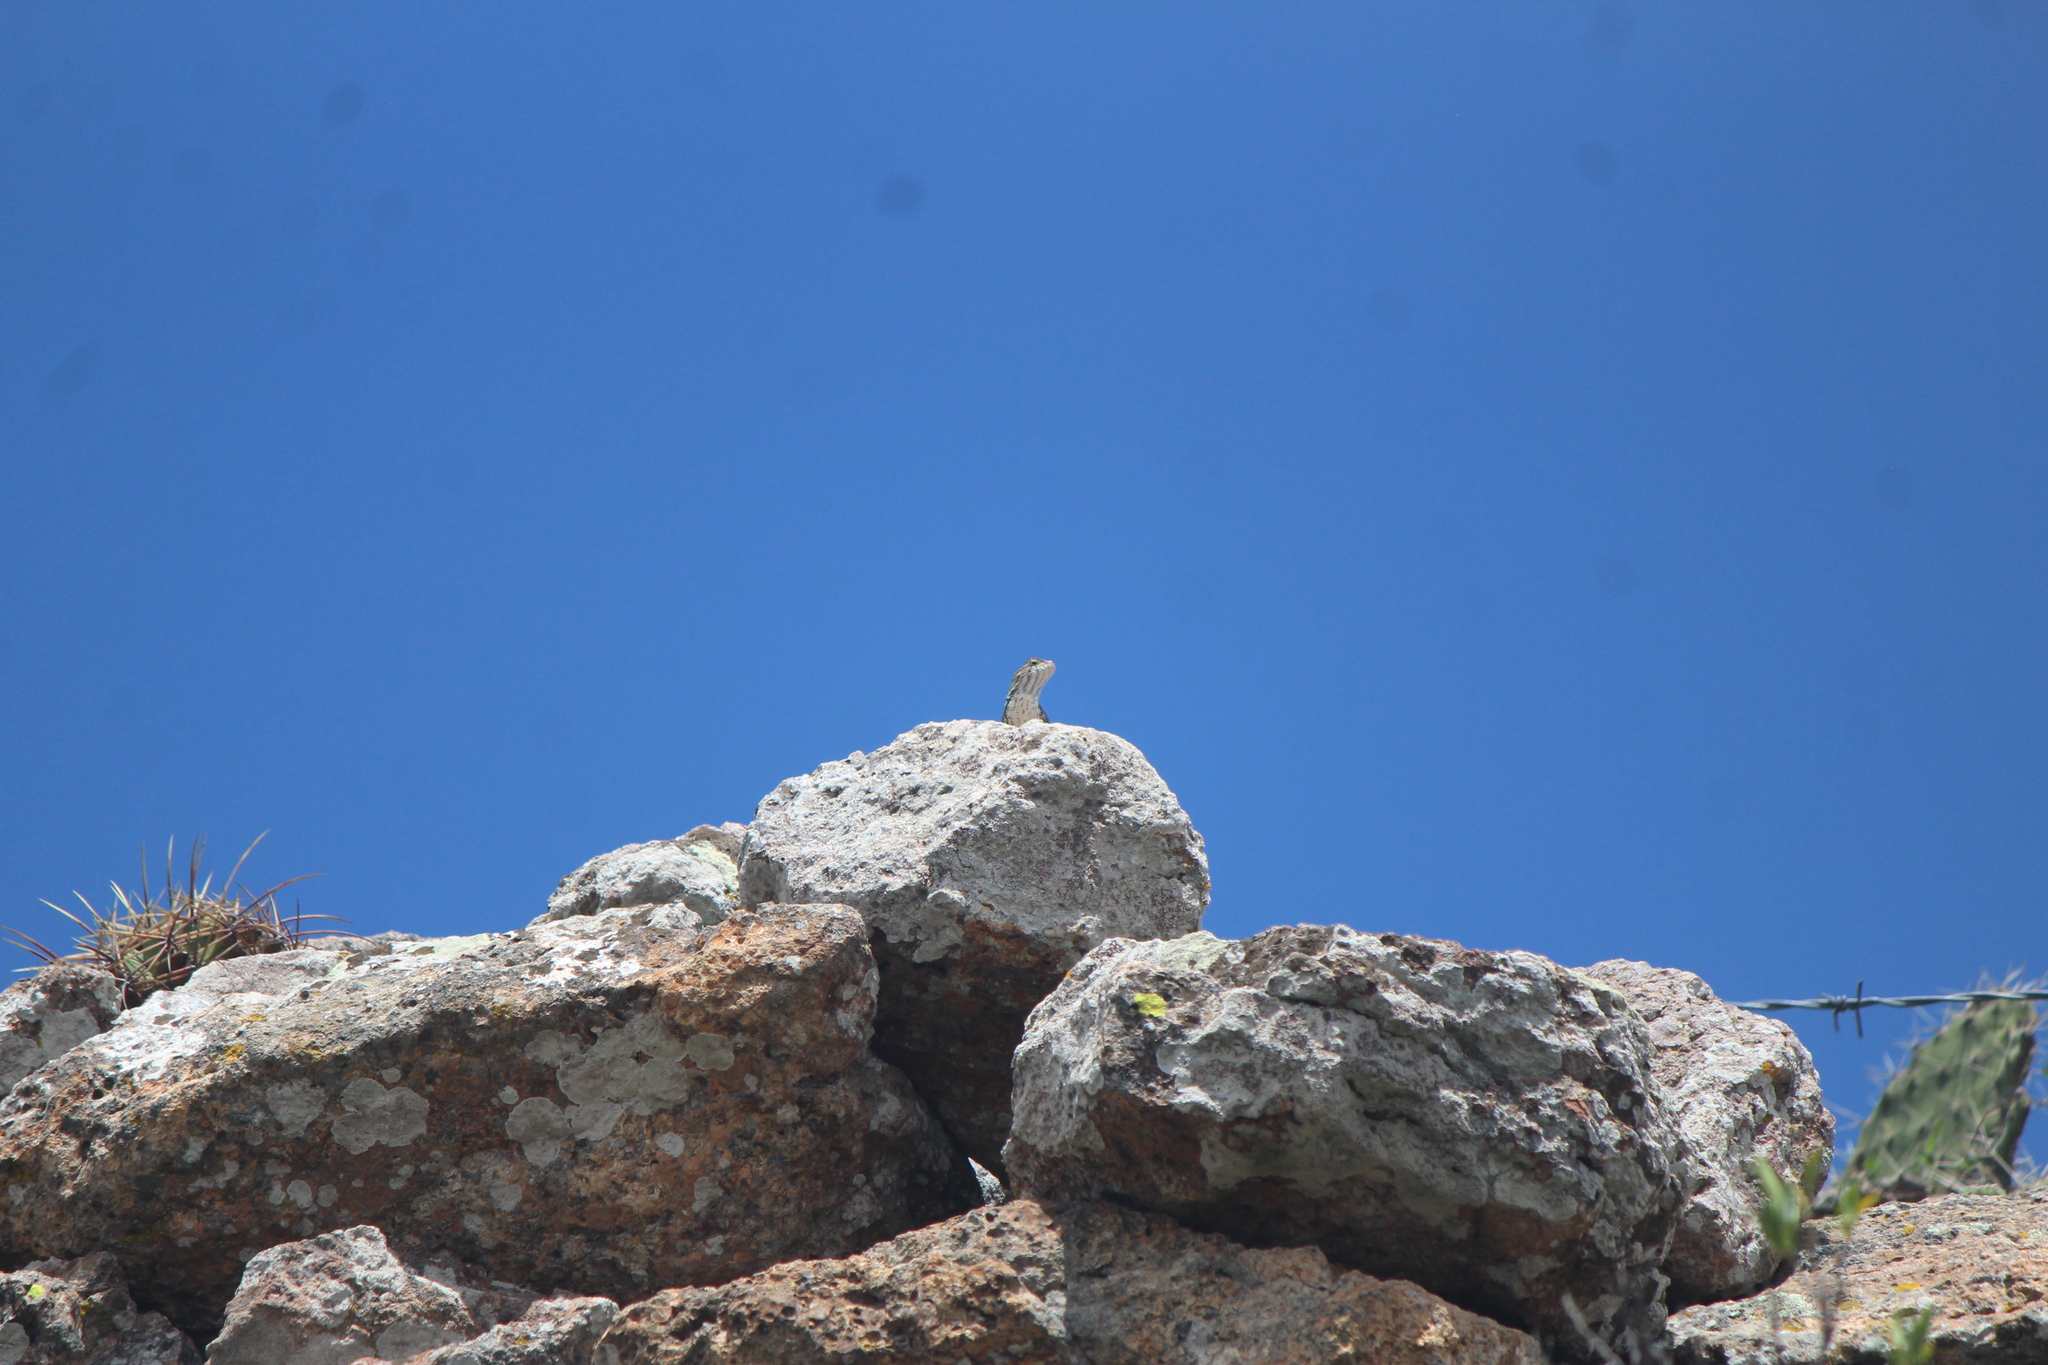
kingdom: Animalia
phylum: Chordata
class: Squamata
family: Phrynosomatidae
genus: Sceloporus
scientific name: Sceloporus spinosus
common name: Blue-spotted spiny lizard [caeruleopunctatus]
